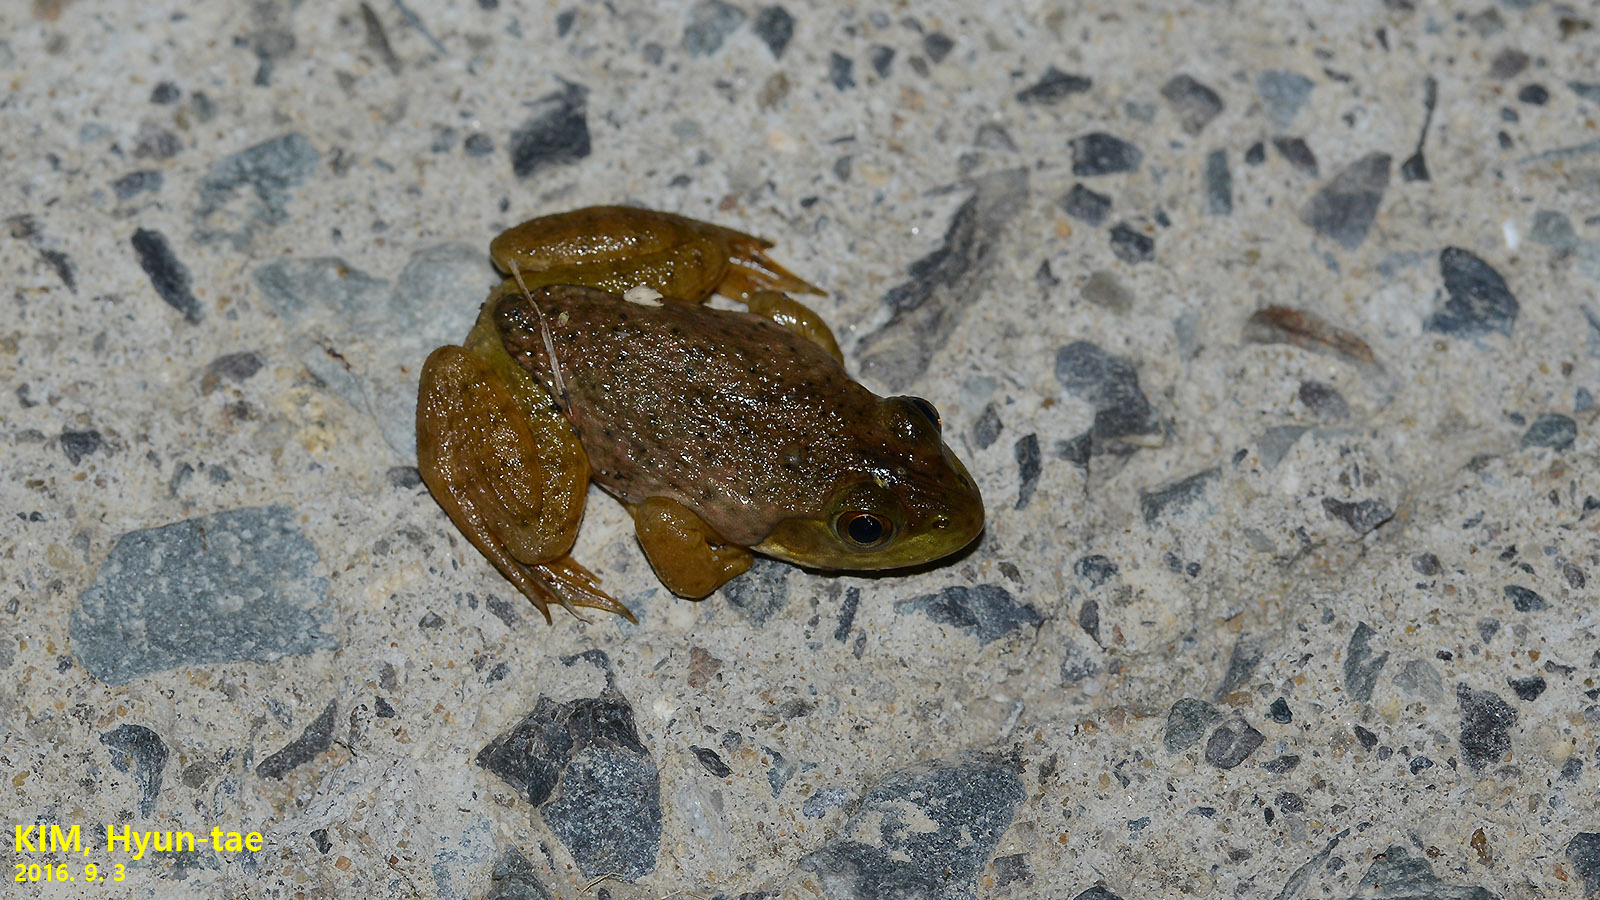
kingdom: Animalia
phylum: Chordata
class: Amphibia
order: Anura
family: Ranidae
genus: Lithobates
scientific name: Lithobates catesbeianus
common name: American bullfrog
